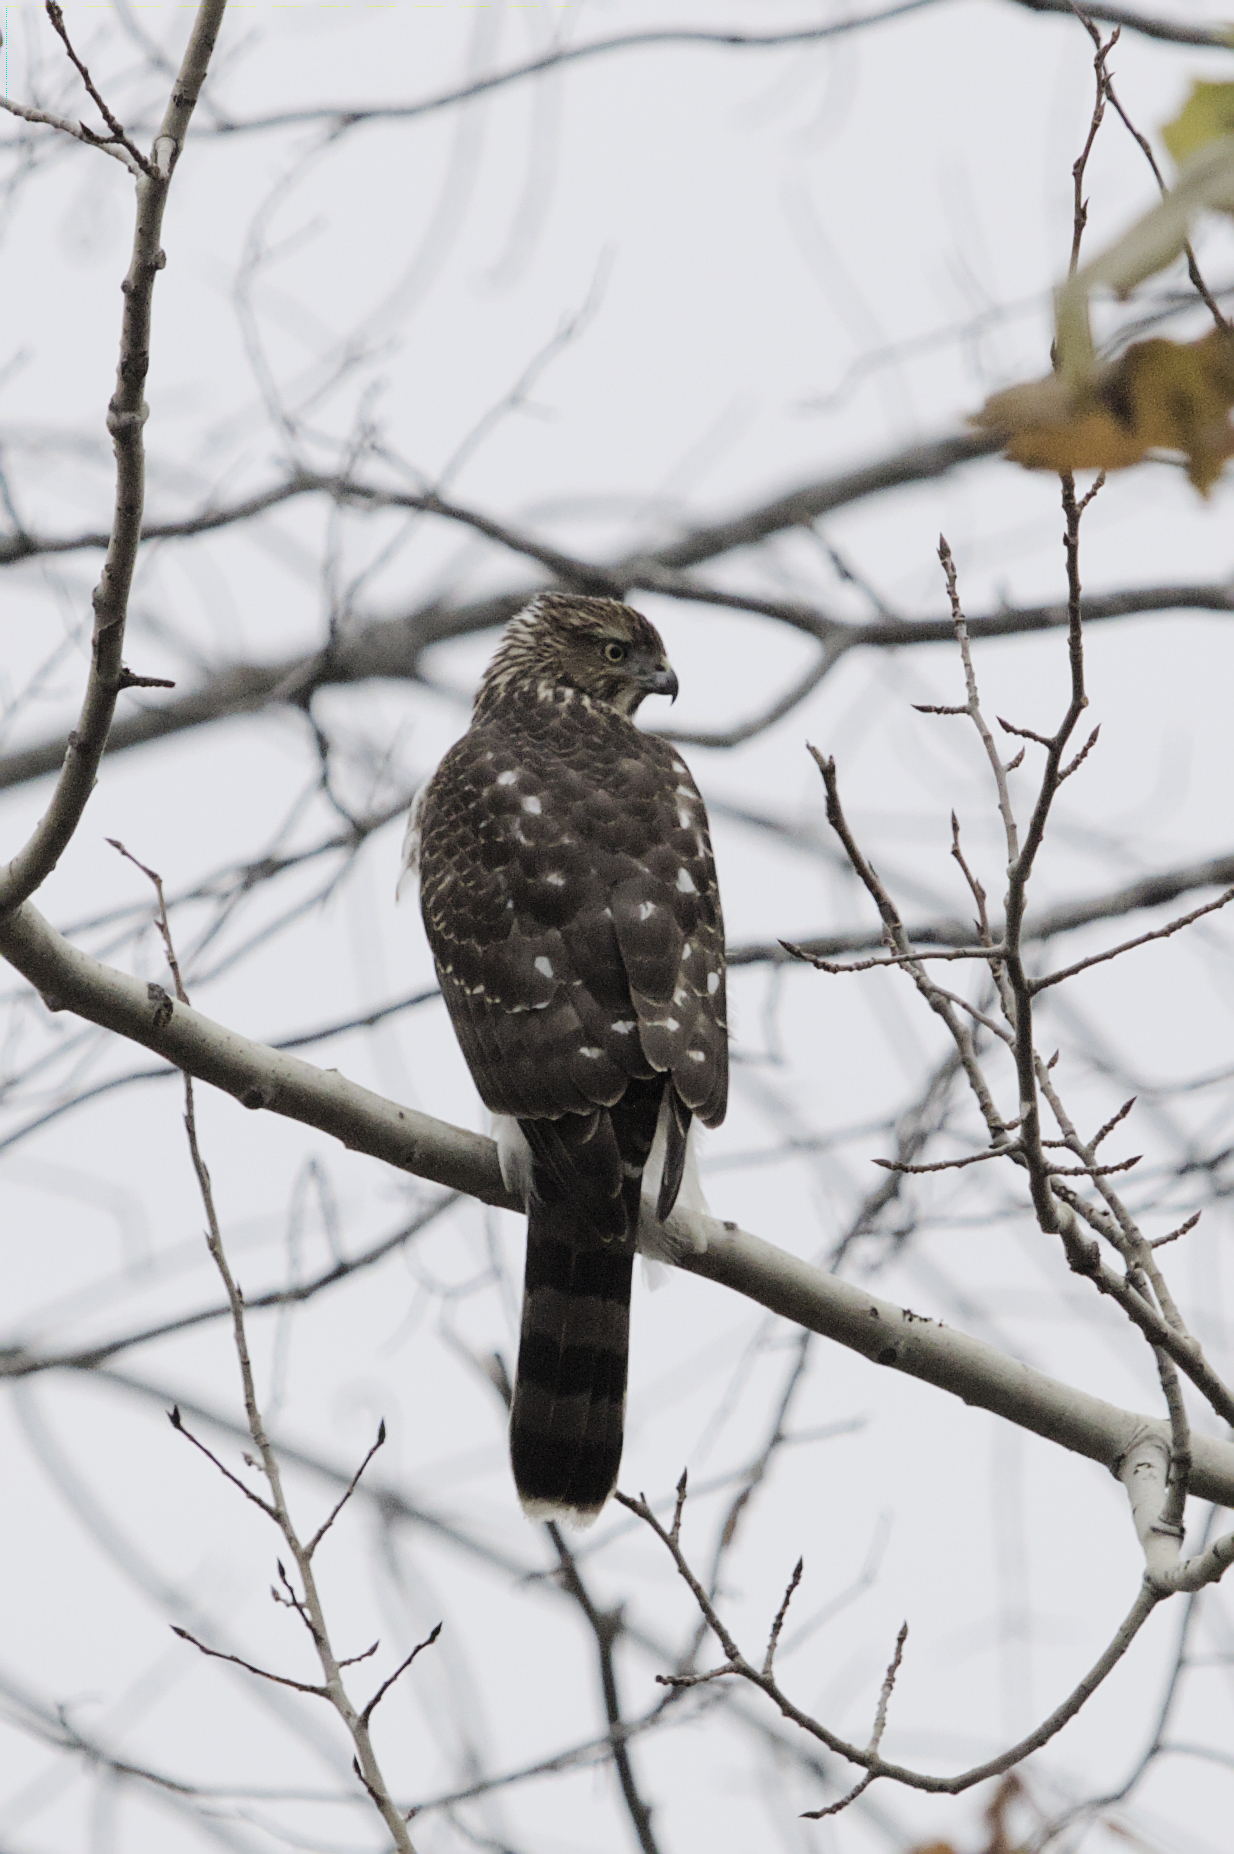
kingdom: Animalia
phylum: Chordata
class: Aves
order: Accipitriformes
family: Accipitridae
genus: Accipiter
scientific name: Accipiter cooperii
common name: Cooper's hawk
